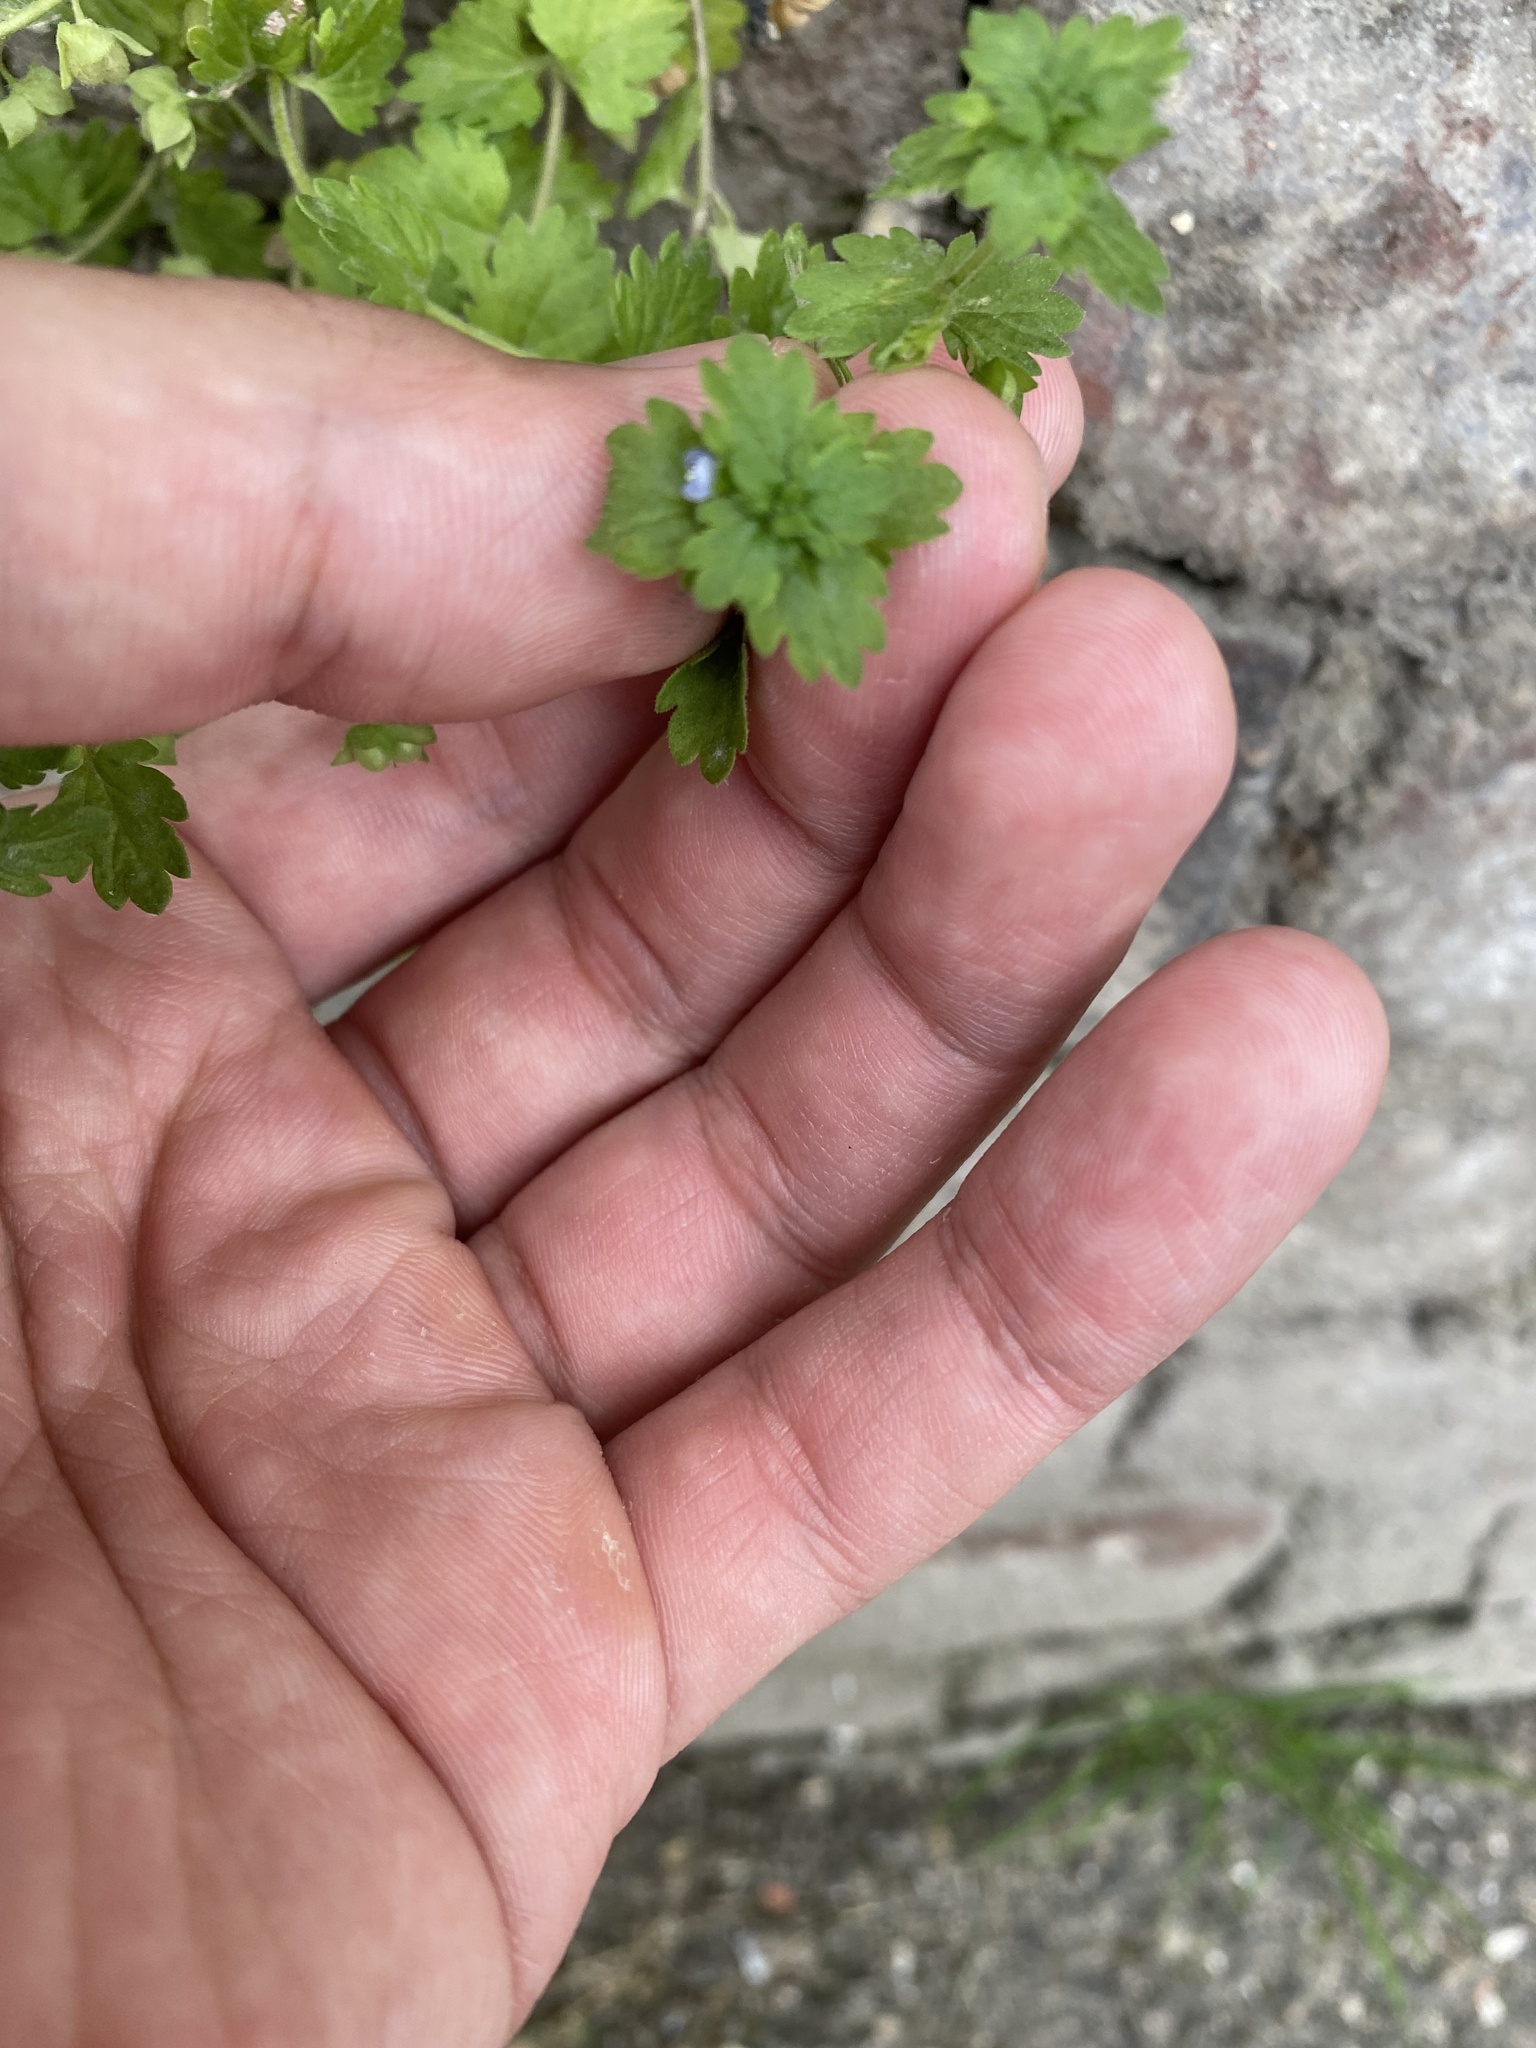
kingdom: Plantae
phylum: Tracheophyta
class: Magnoliopsida
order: Lamiales
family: Plantaginaceae
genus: Veronica
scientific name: Veronica polita
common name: Grey field-speedwell
